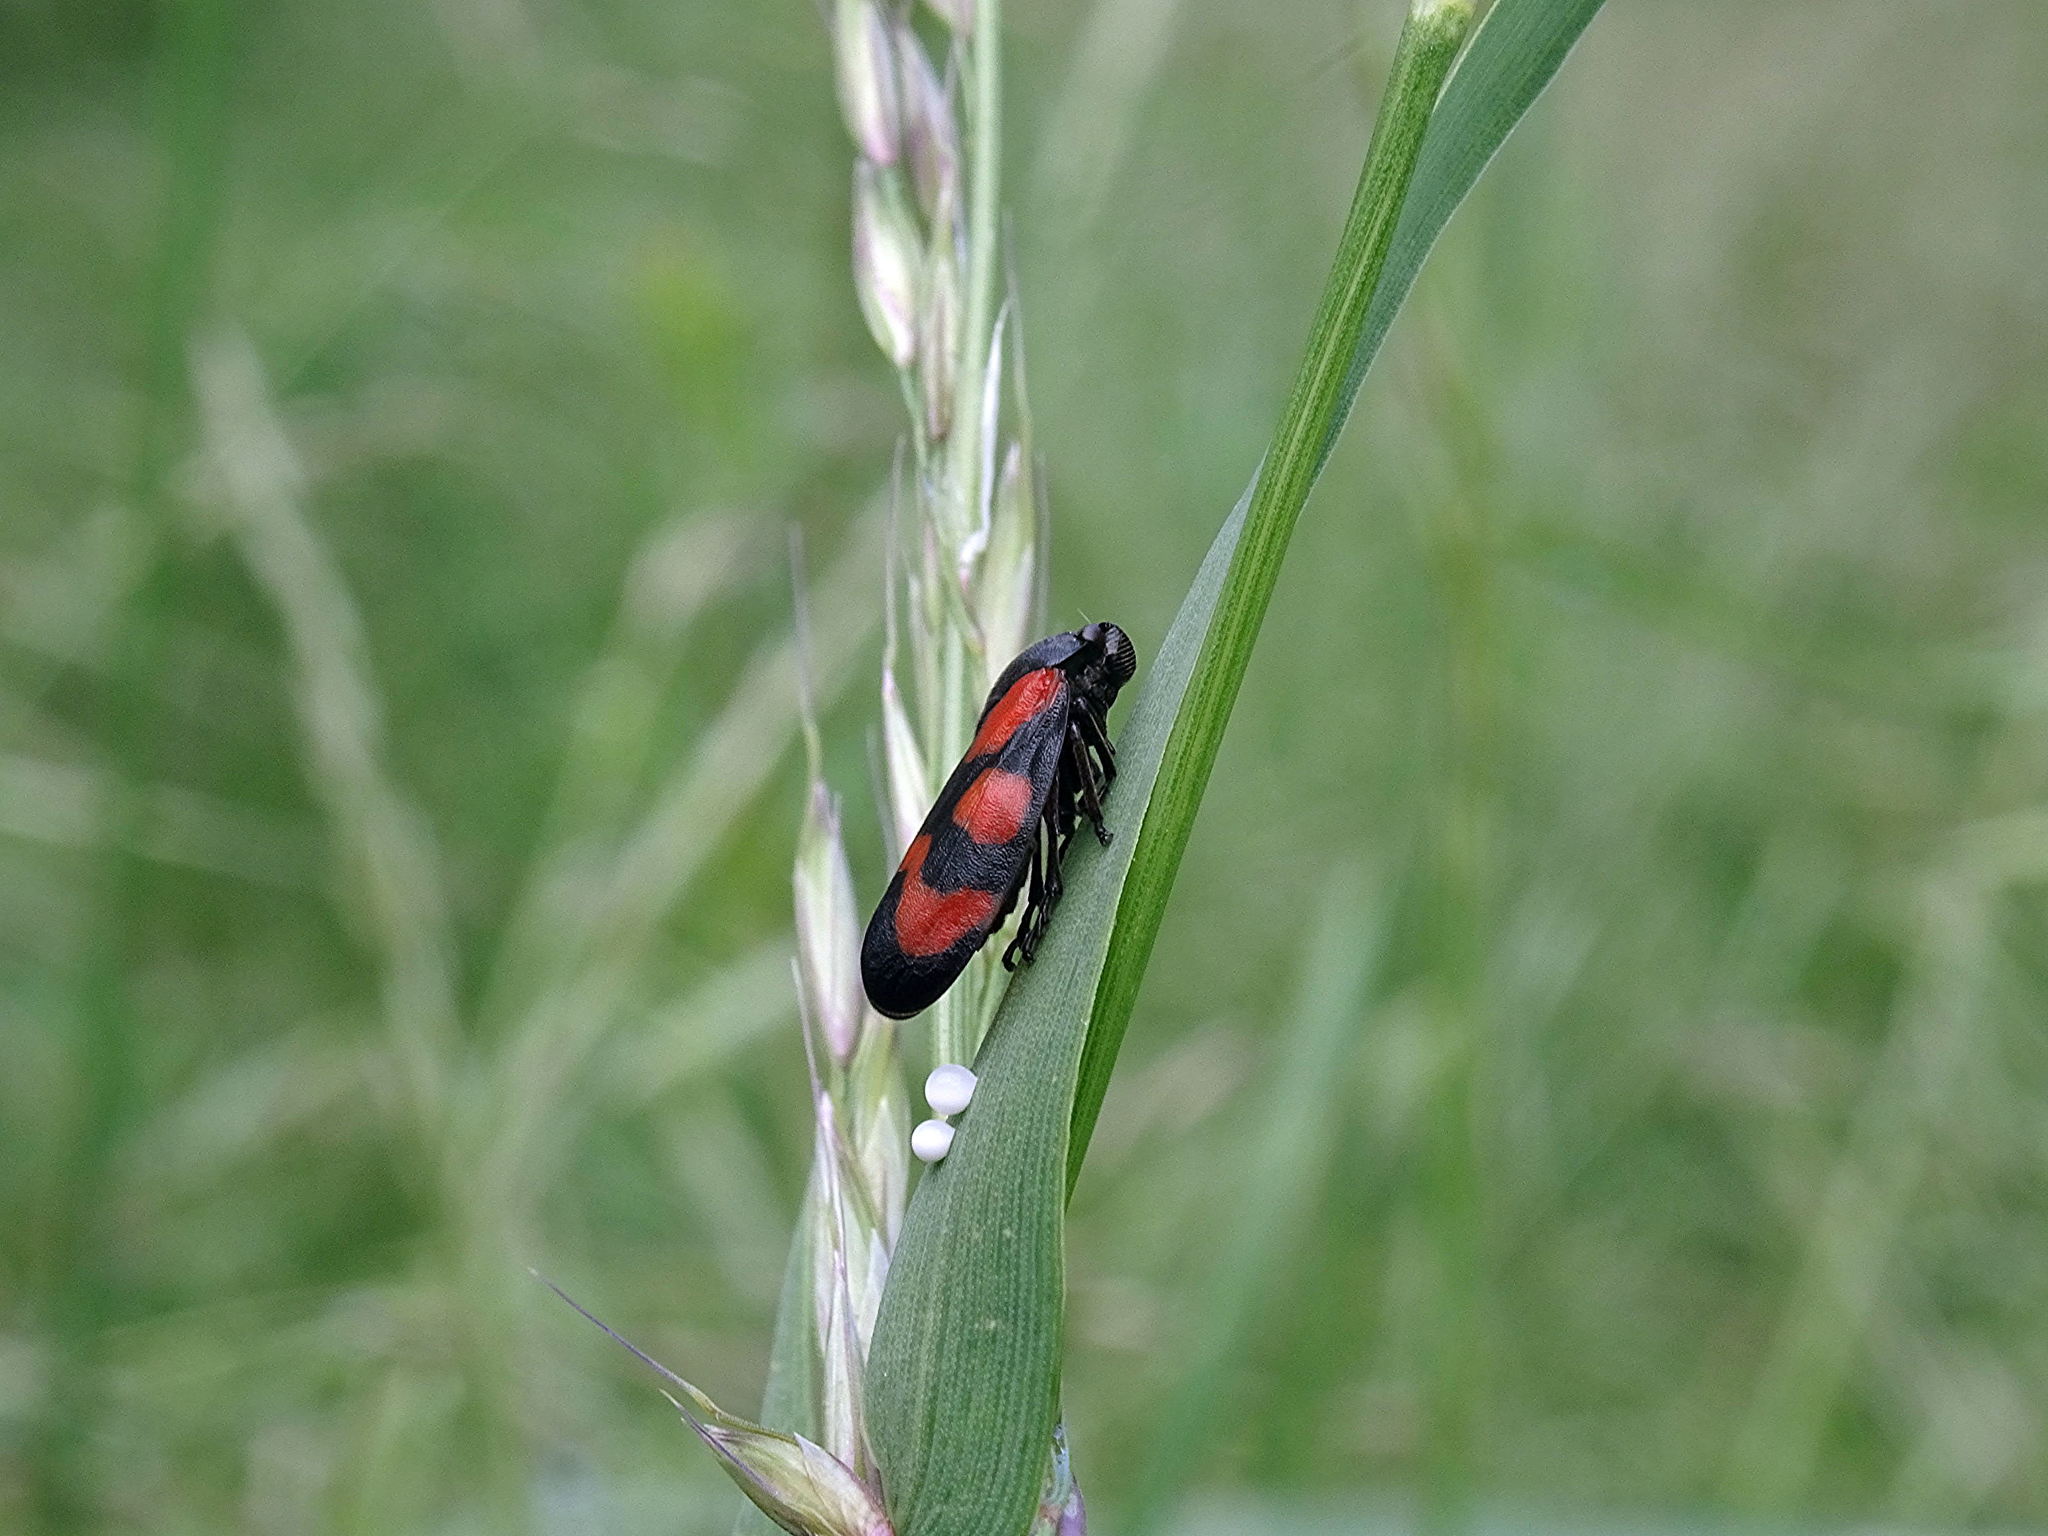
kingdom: Animalia
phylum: Arthropoda
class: Insecta
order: Hemiptera
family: Cercopidae
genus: Cercopis
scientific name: Cercopis vulnerata
